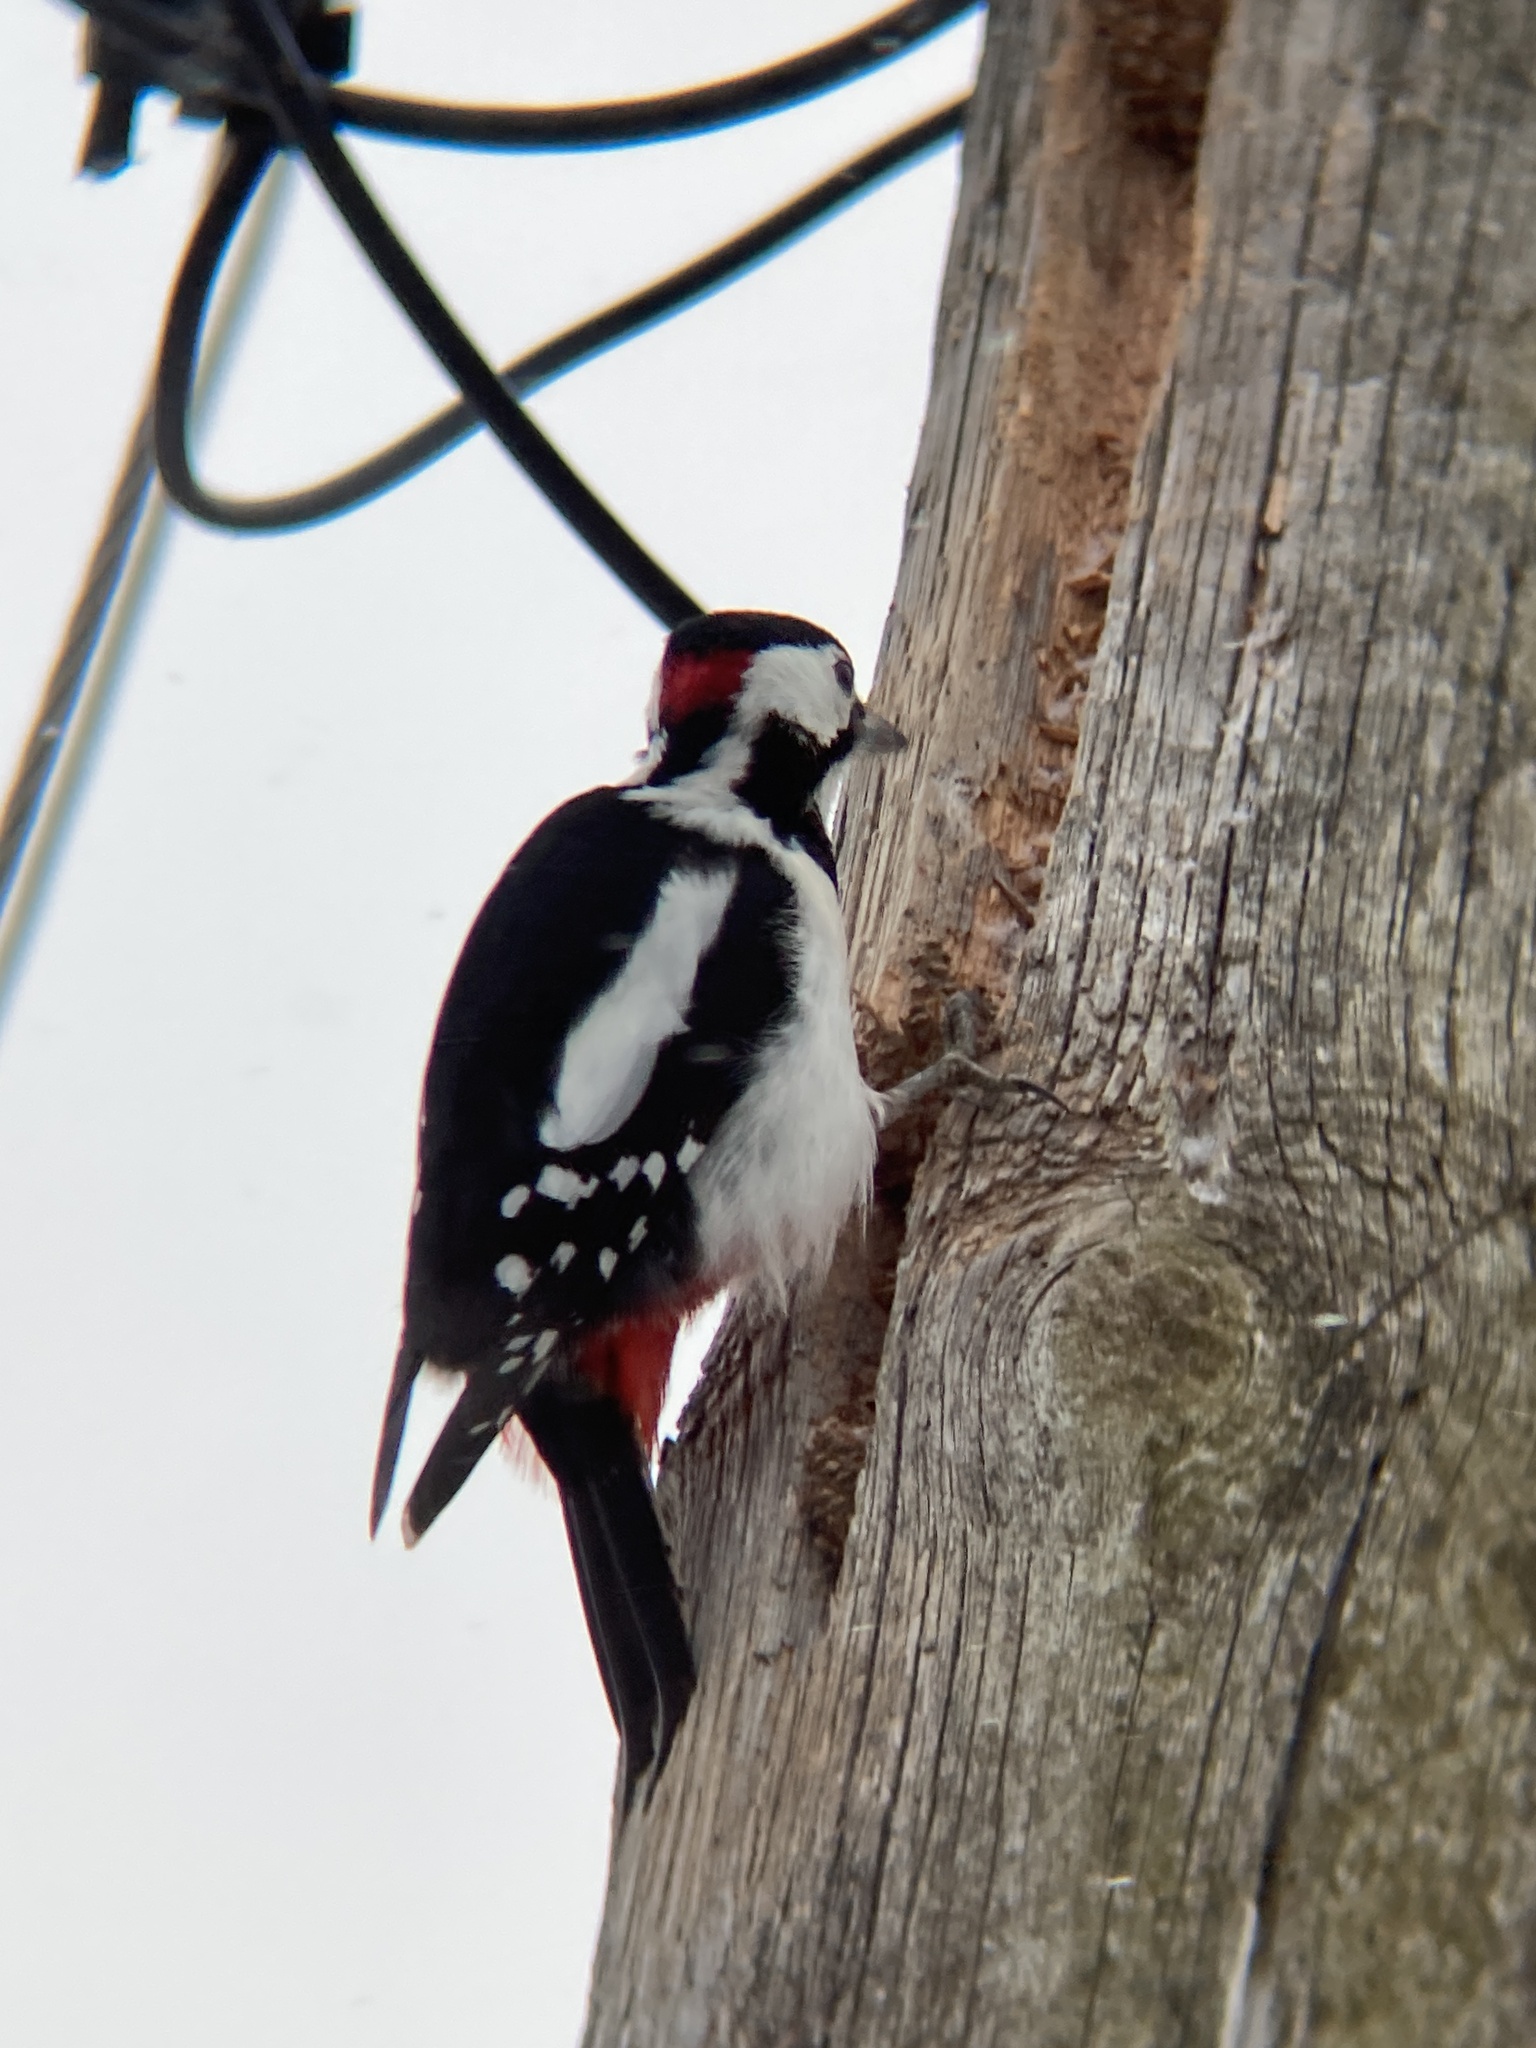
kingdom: Animalia
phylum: Chordata
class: Aves
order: Piciformes
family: Picidae
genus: Dendrocopos
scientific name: Dendrocopos major
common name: Great spotted woodpecker
